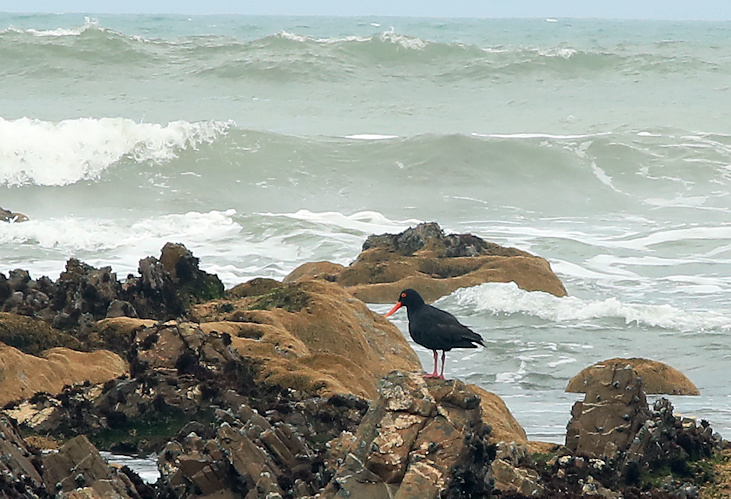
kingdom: Animalia
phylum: Chordata
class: Aves
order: Charadriiformes
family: Haematopodidae
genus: Haematopus
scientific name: Haematopus moquini
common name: African oystercatcher
